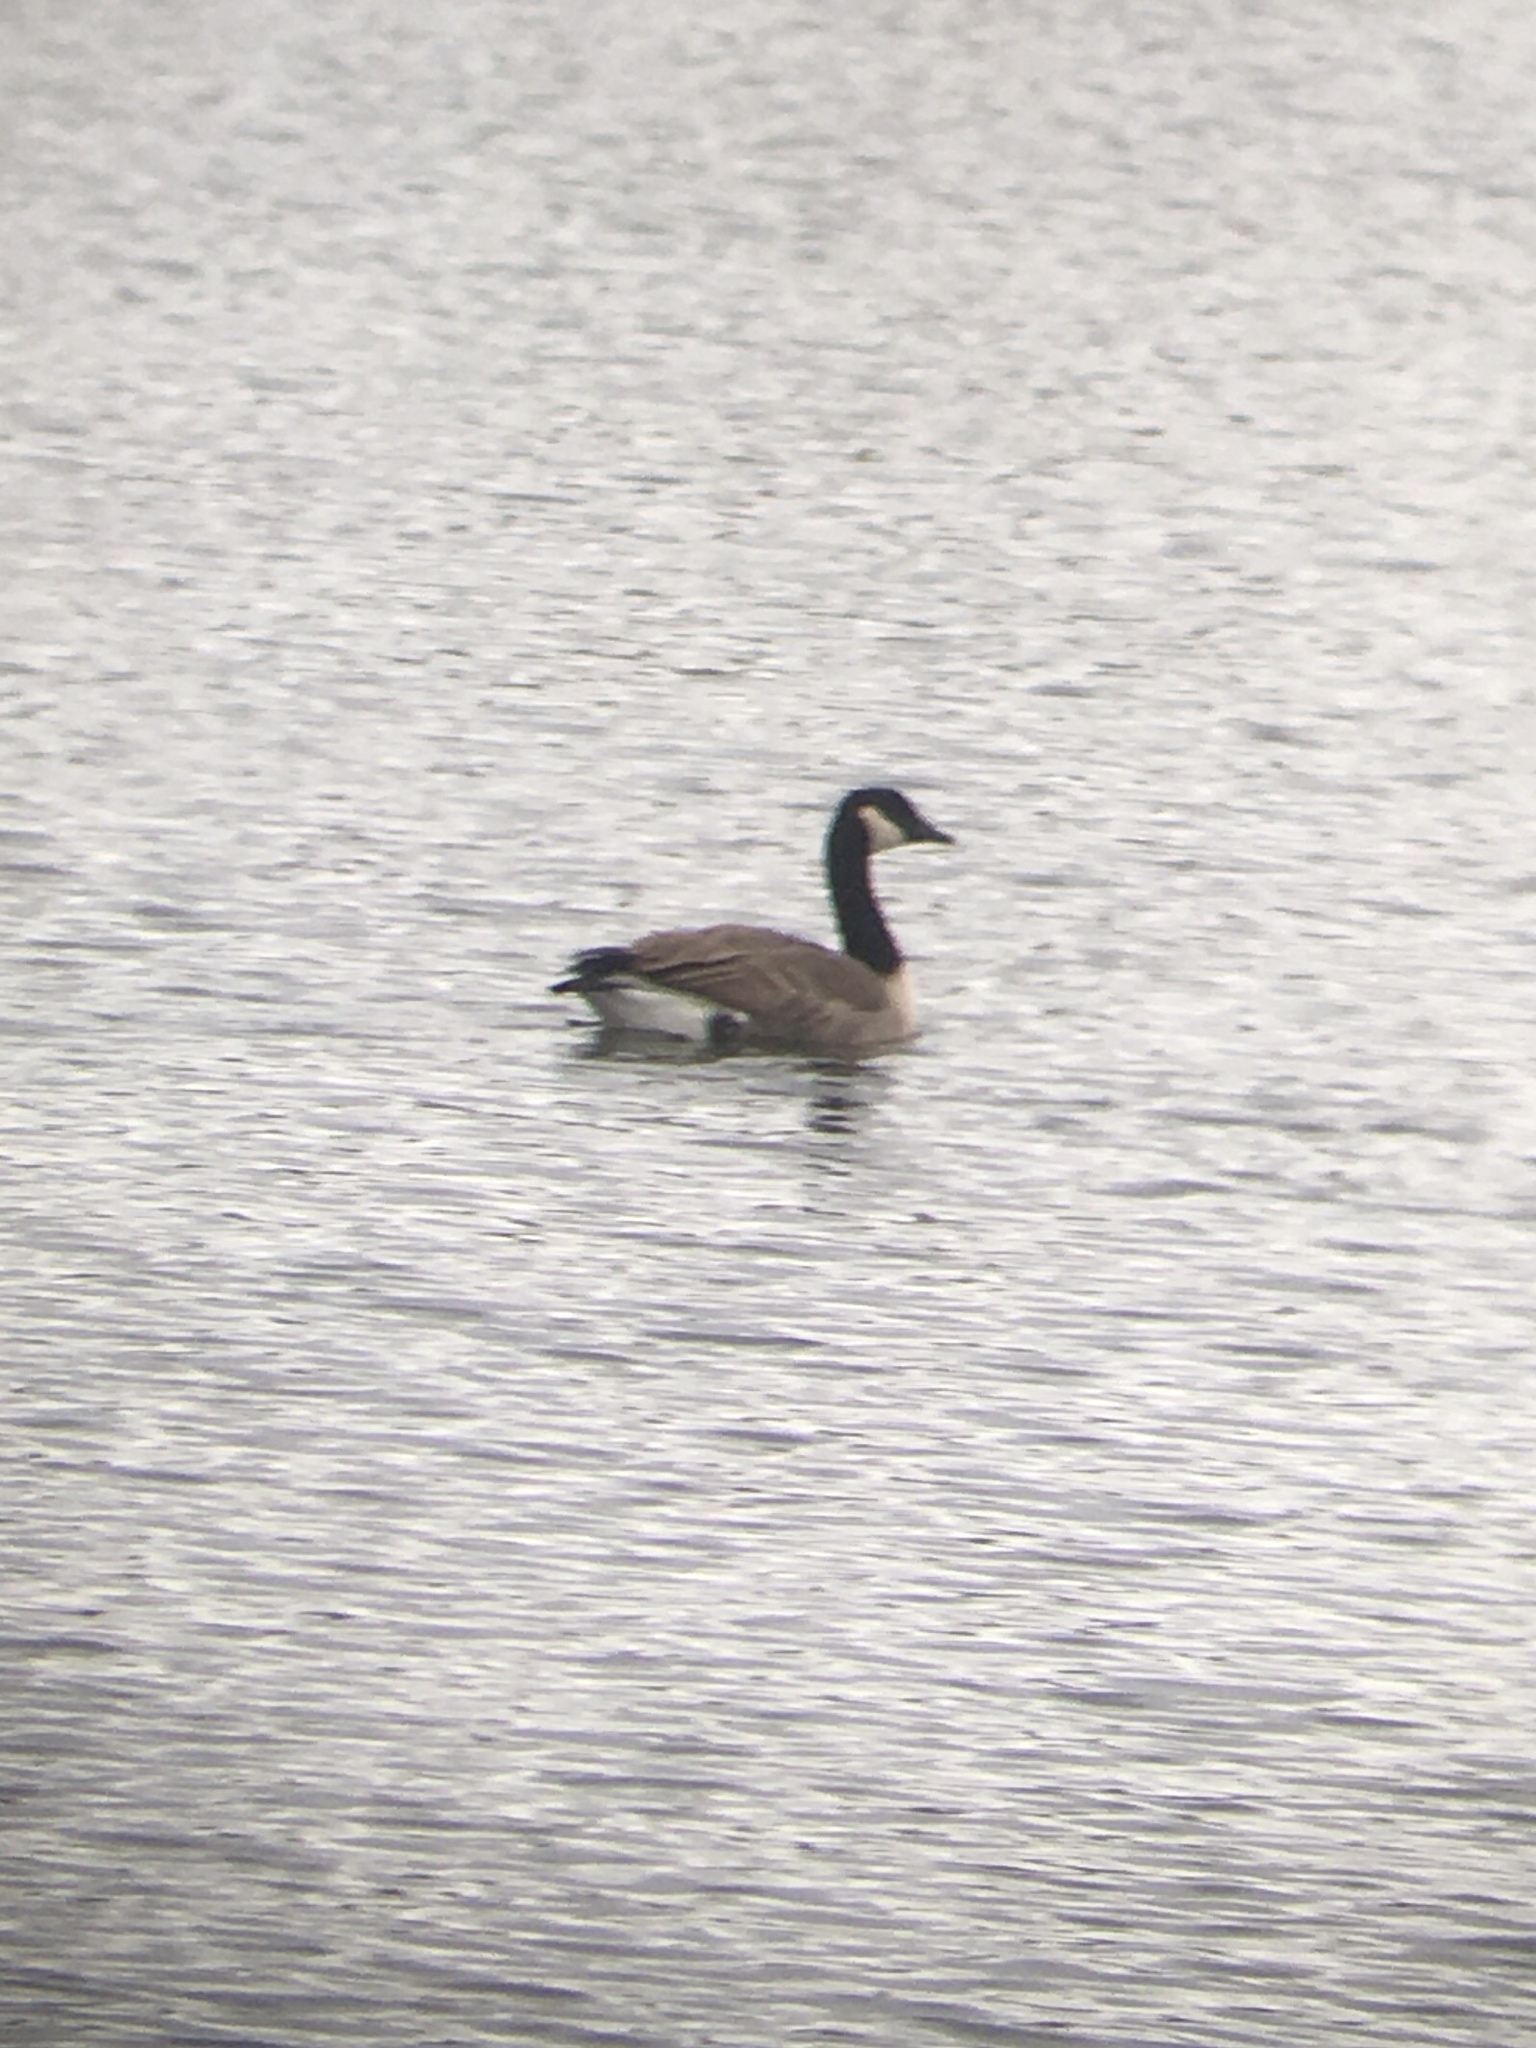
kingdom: Animalia
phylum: Chordata
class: Aves
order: Anseriformes
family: Anatidae
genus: Branta
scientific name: Branta canadensis
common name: Canada goose
